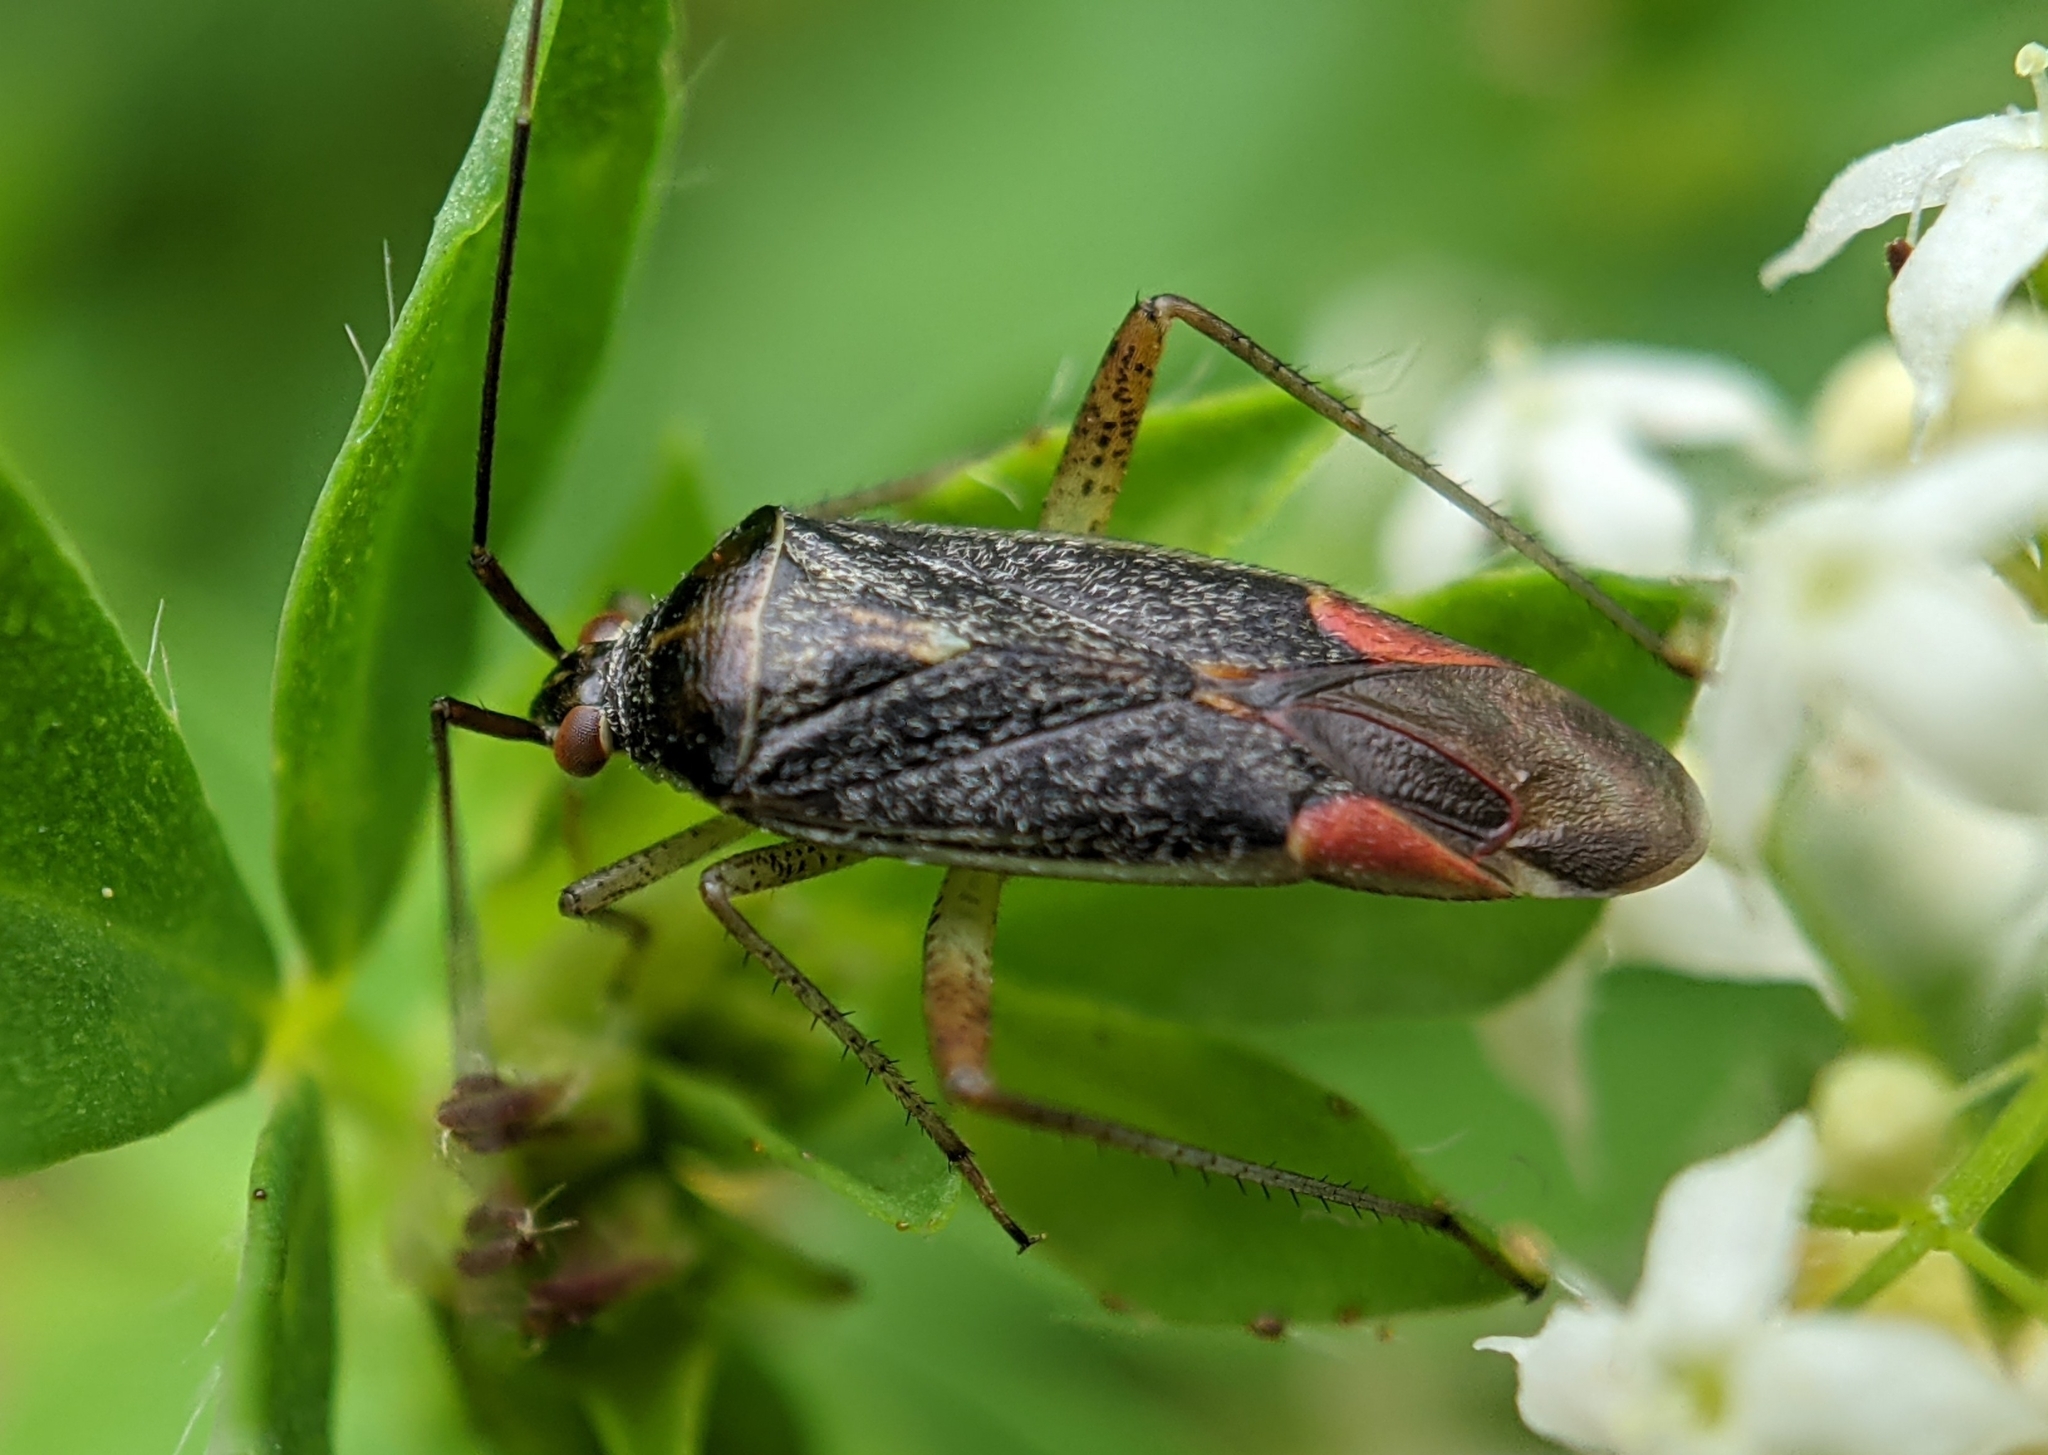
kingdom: Animalia
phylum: Arthropoda
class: Insecta
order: Hemiptera
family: Miridae
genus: Closterotomus
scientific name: Closterotomus trivialis
